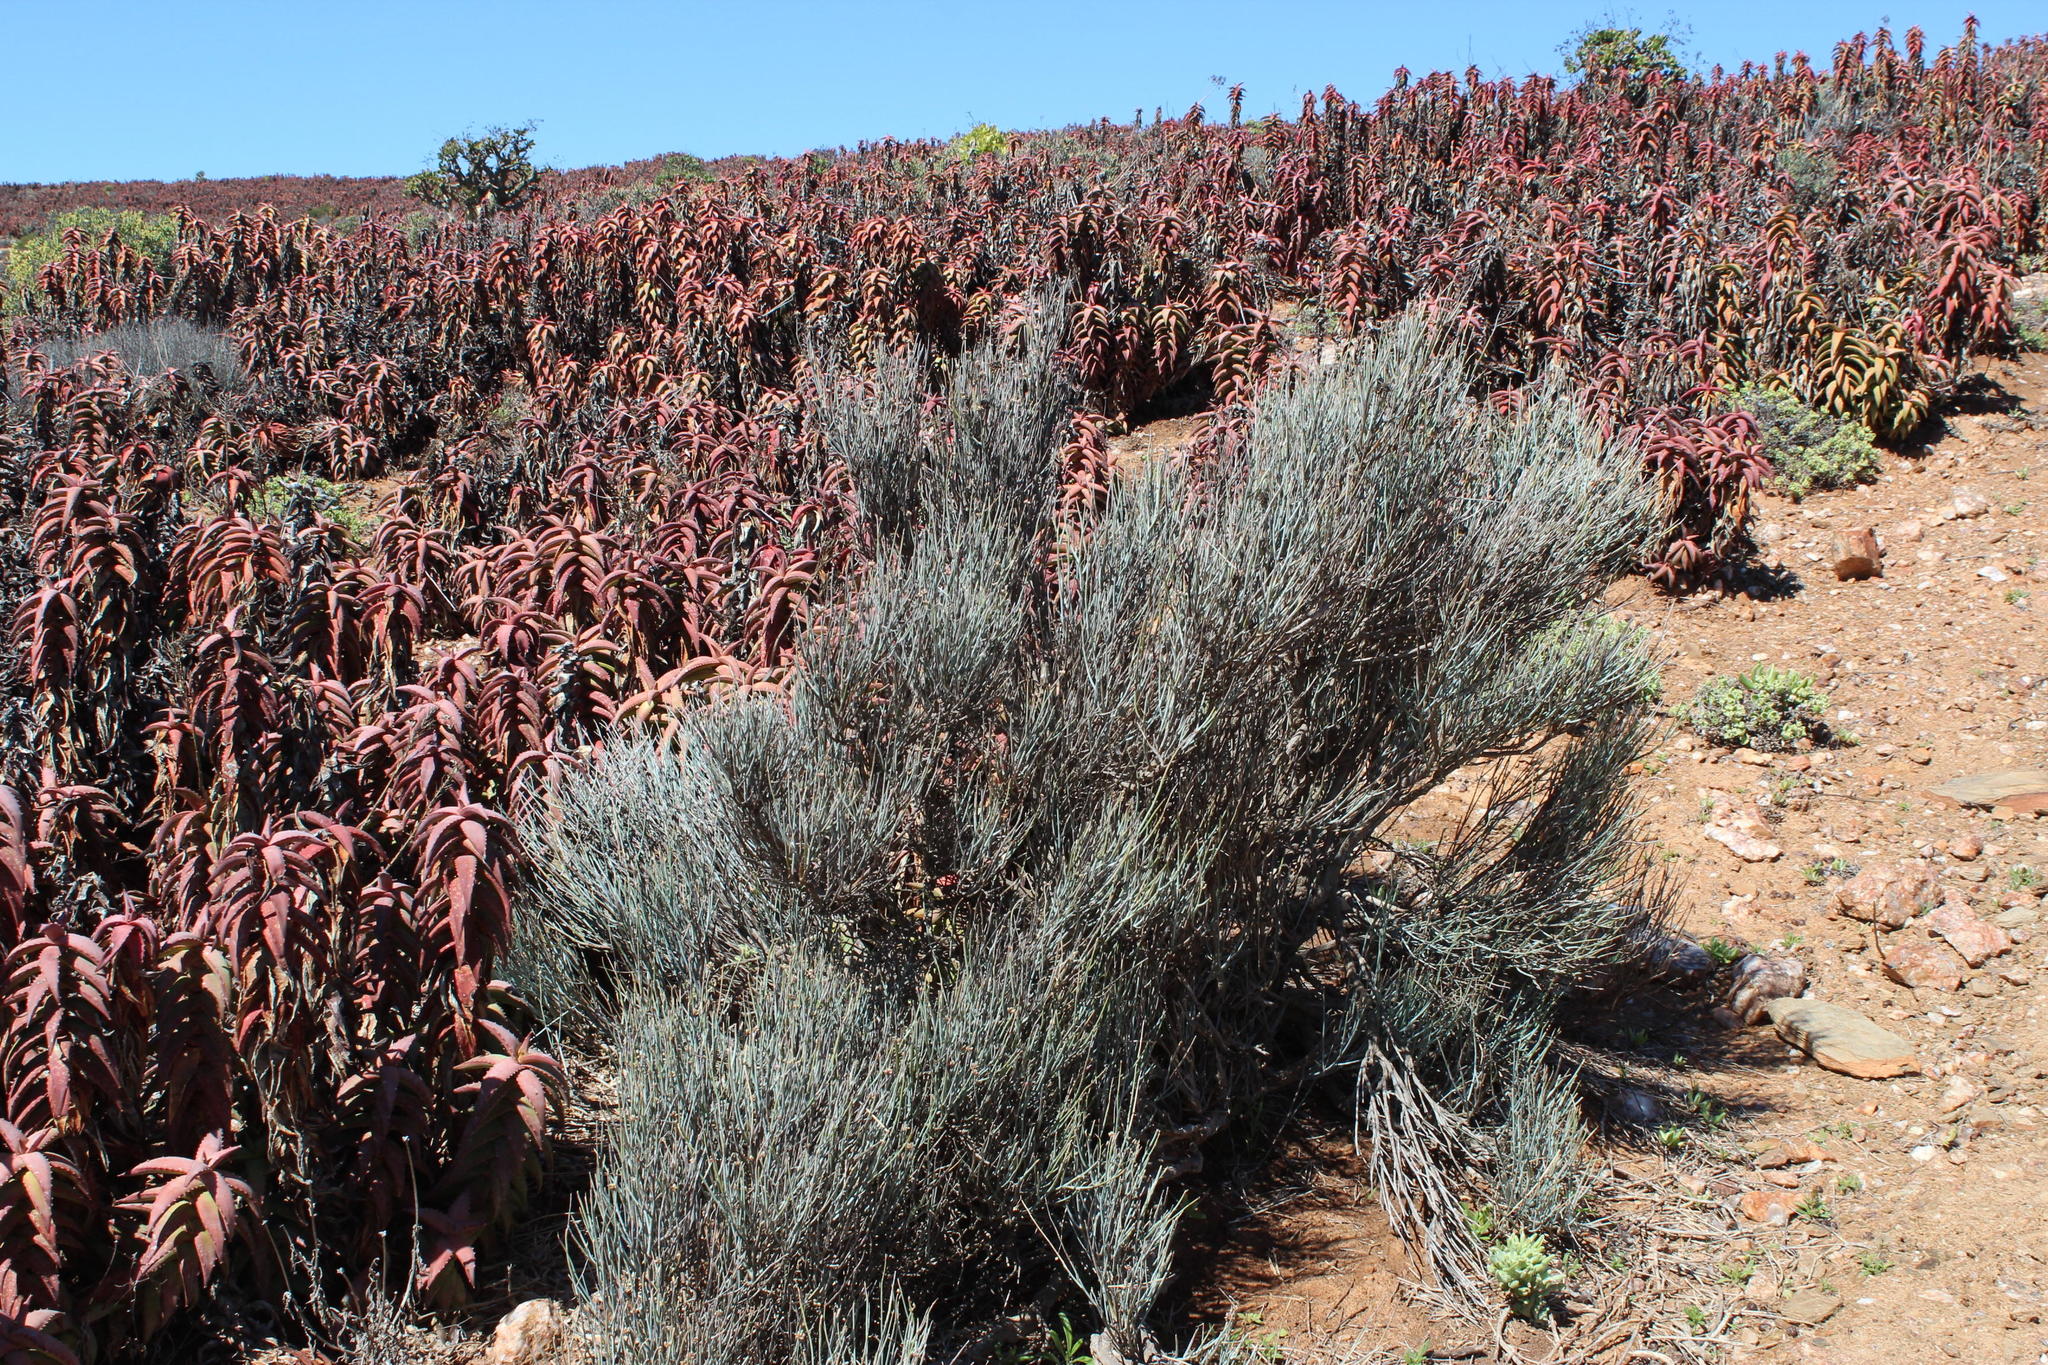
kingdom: Plantae
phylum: Tracheophyta
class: Magnoliopsida
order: Caryophyllales
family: Amaranthaceae
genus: Hermbstaedtia
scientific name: Hermbstaedtia glauca
